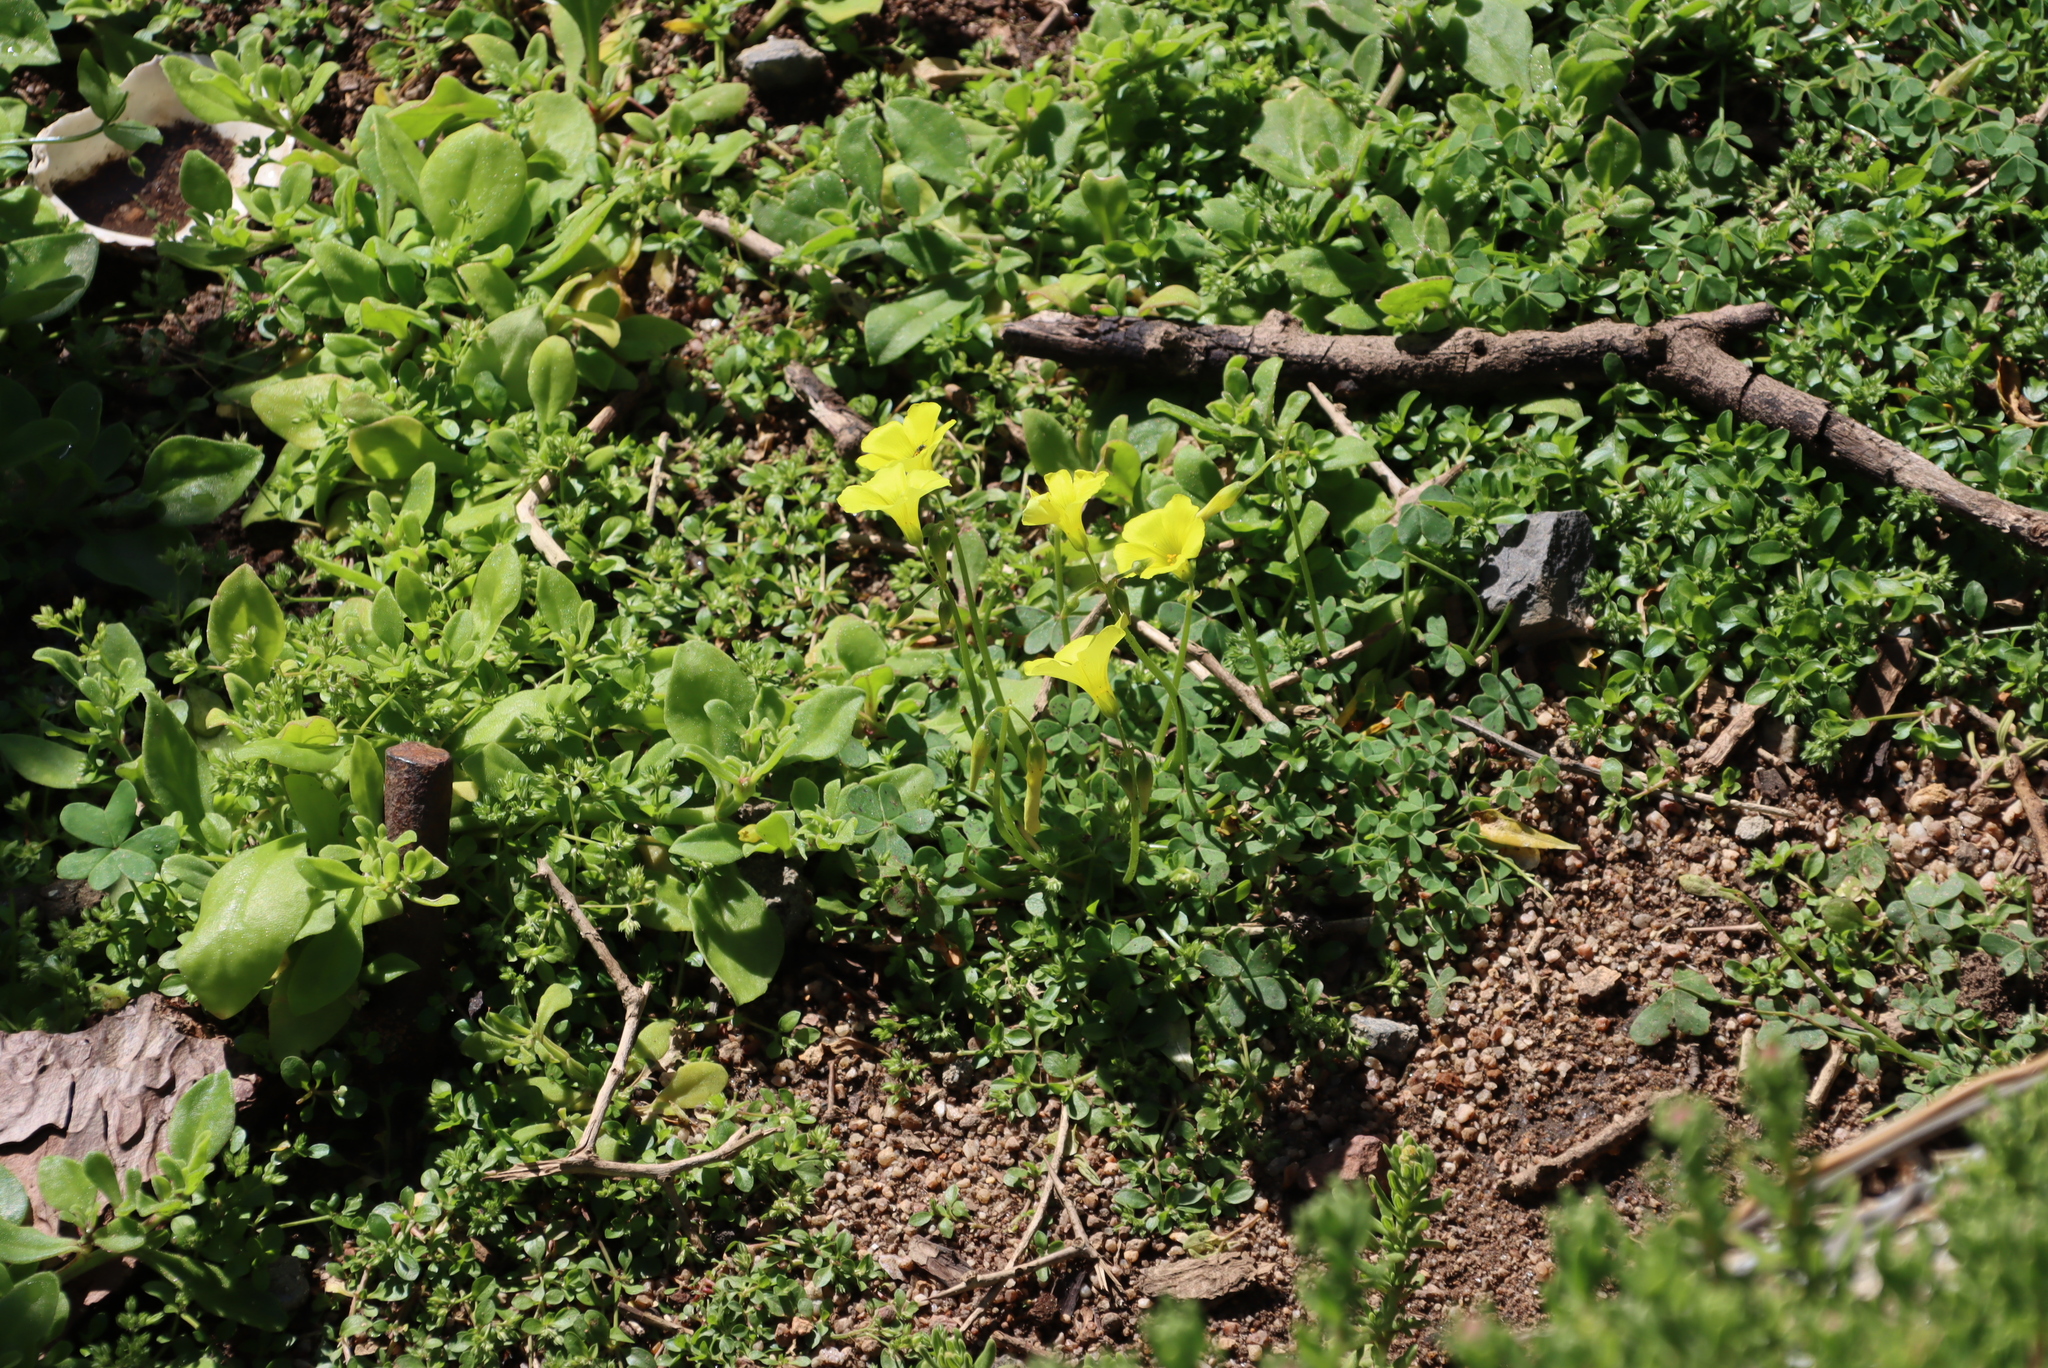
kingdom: Plantae
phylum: Tracheophyta
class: Magnoliopsida
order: Oxalidales
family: Oxalidaceae
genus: Oxalis
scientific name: Oxalis pes-caprae
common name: Bermuda-buttercup
